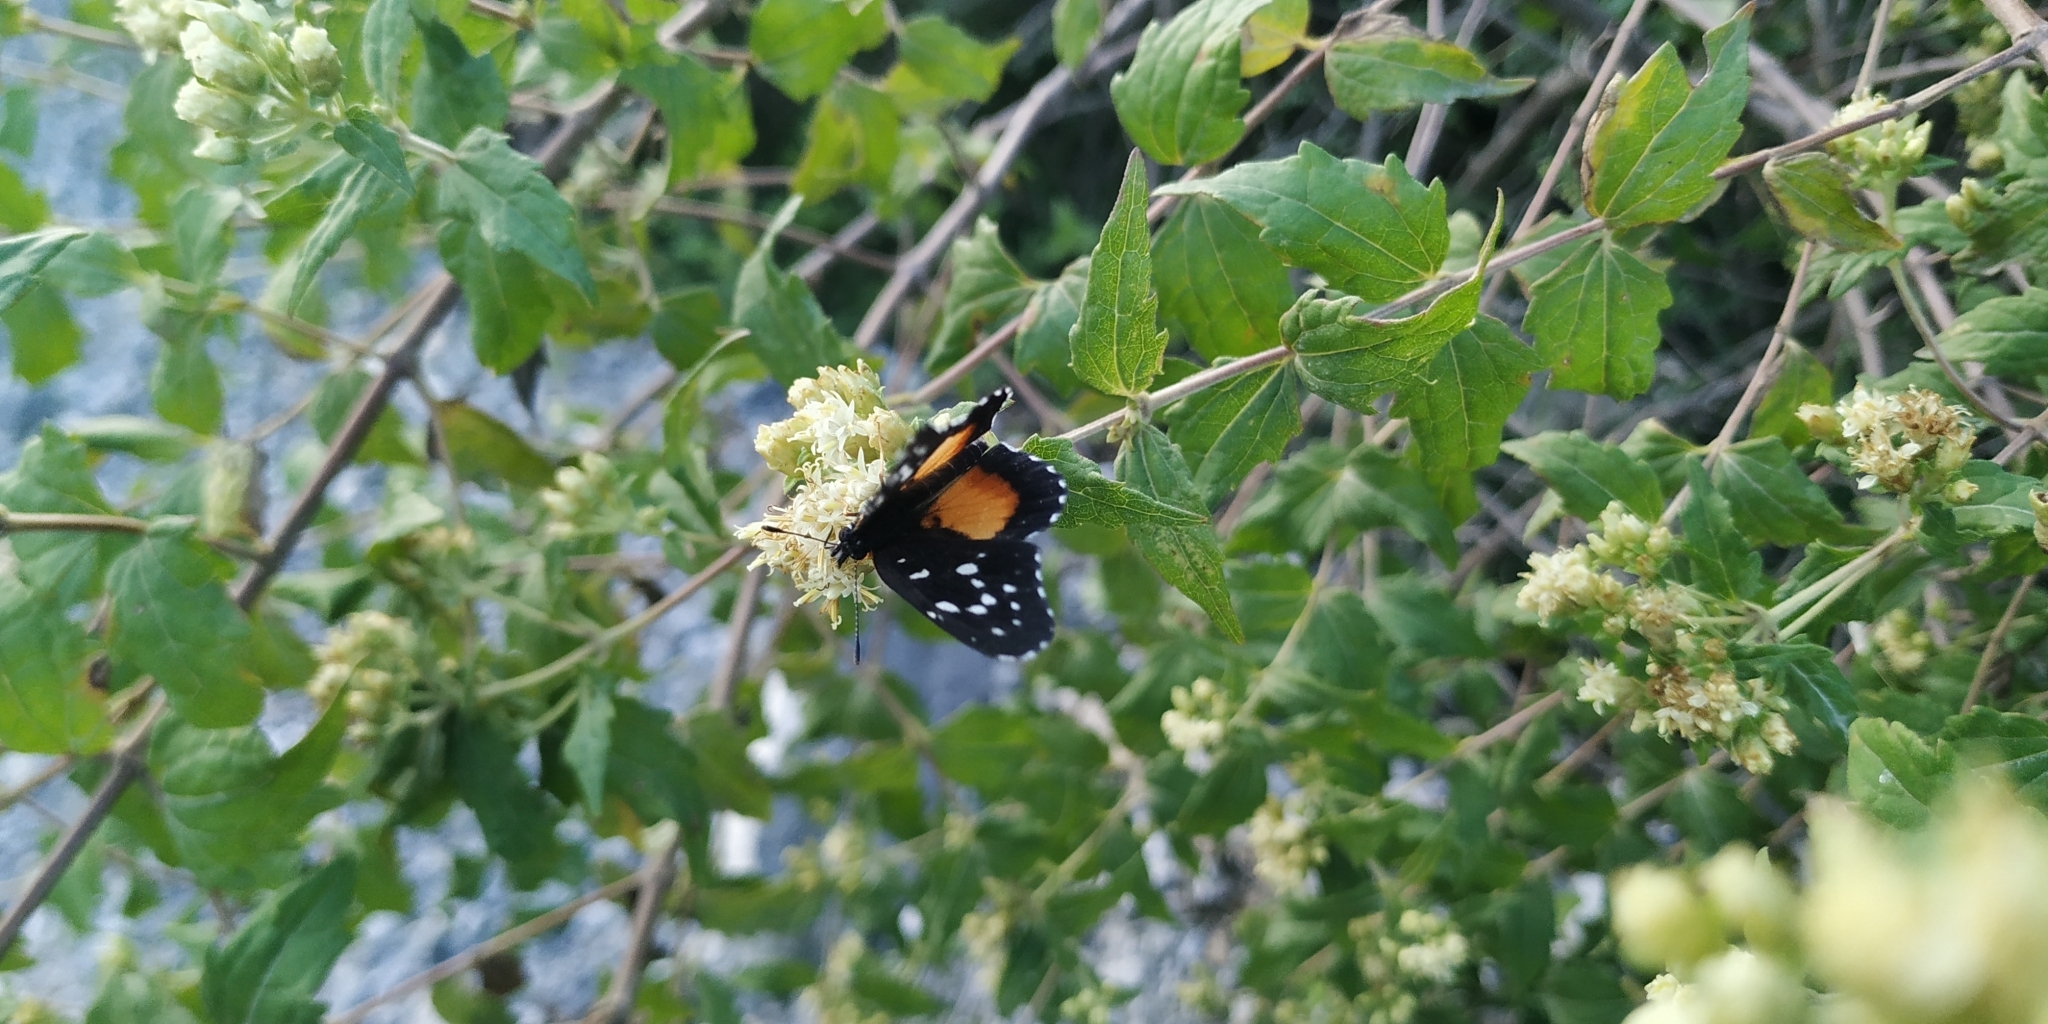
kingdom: Animalia
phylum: Arthropoda
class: Insecta
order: Lepidoptera
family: Nymphalidae
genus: Chlosyne
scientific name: Chlosyne rosita
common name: Rosita patch
